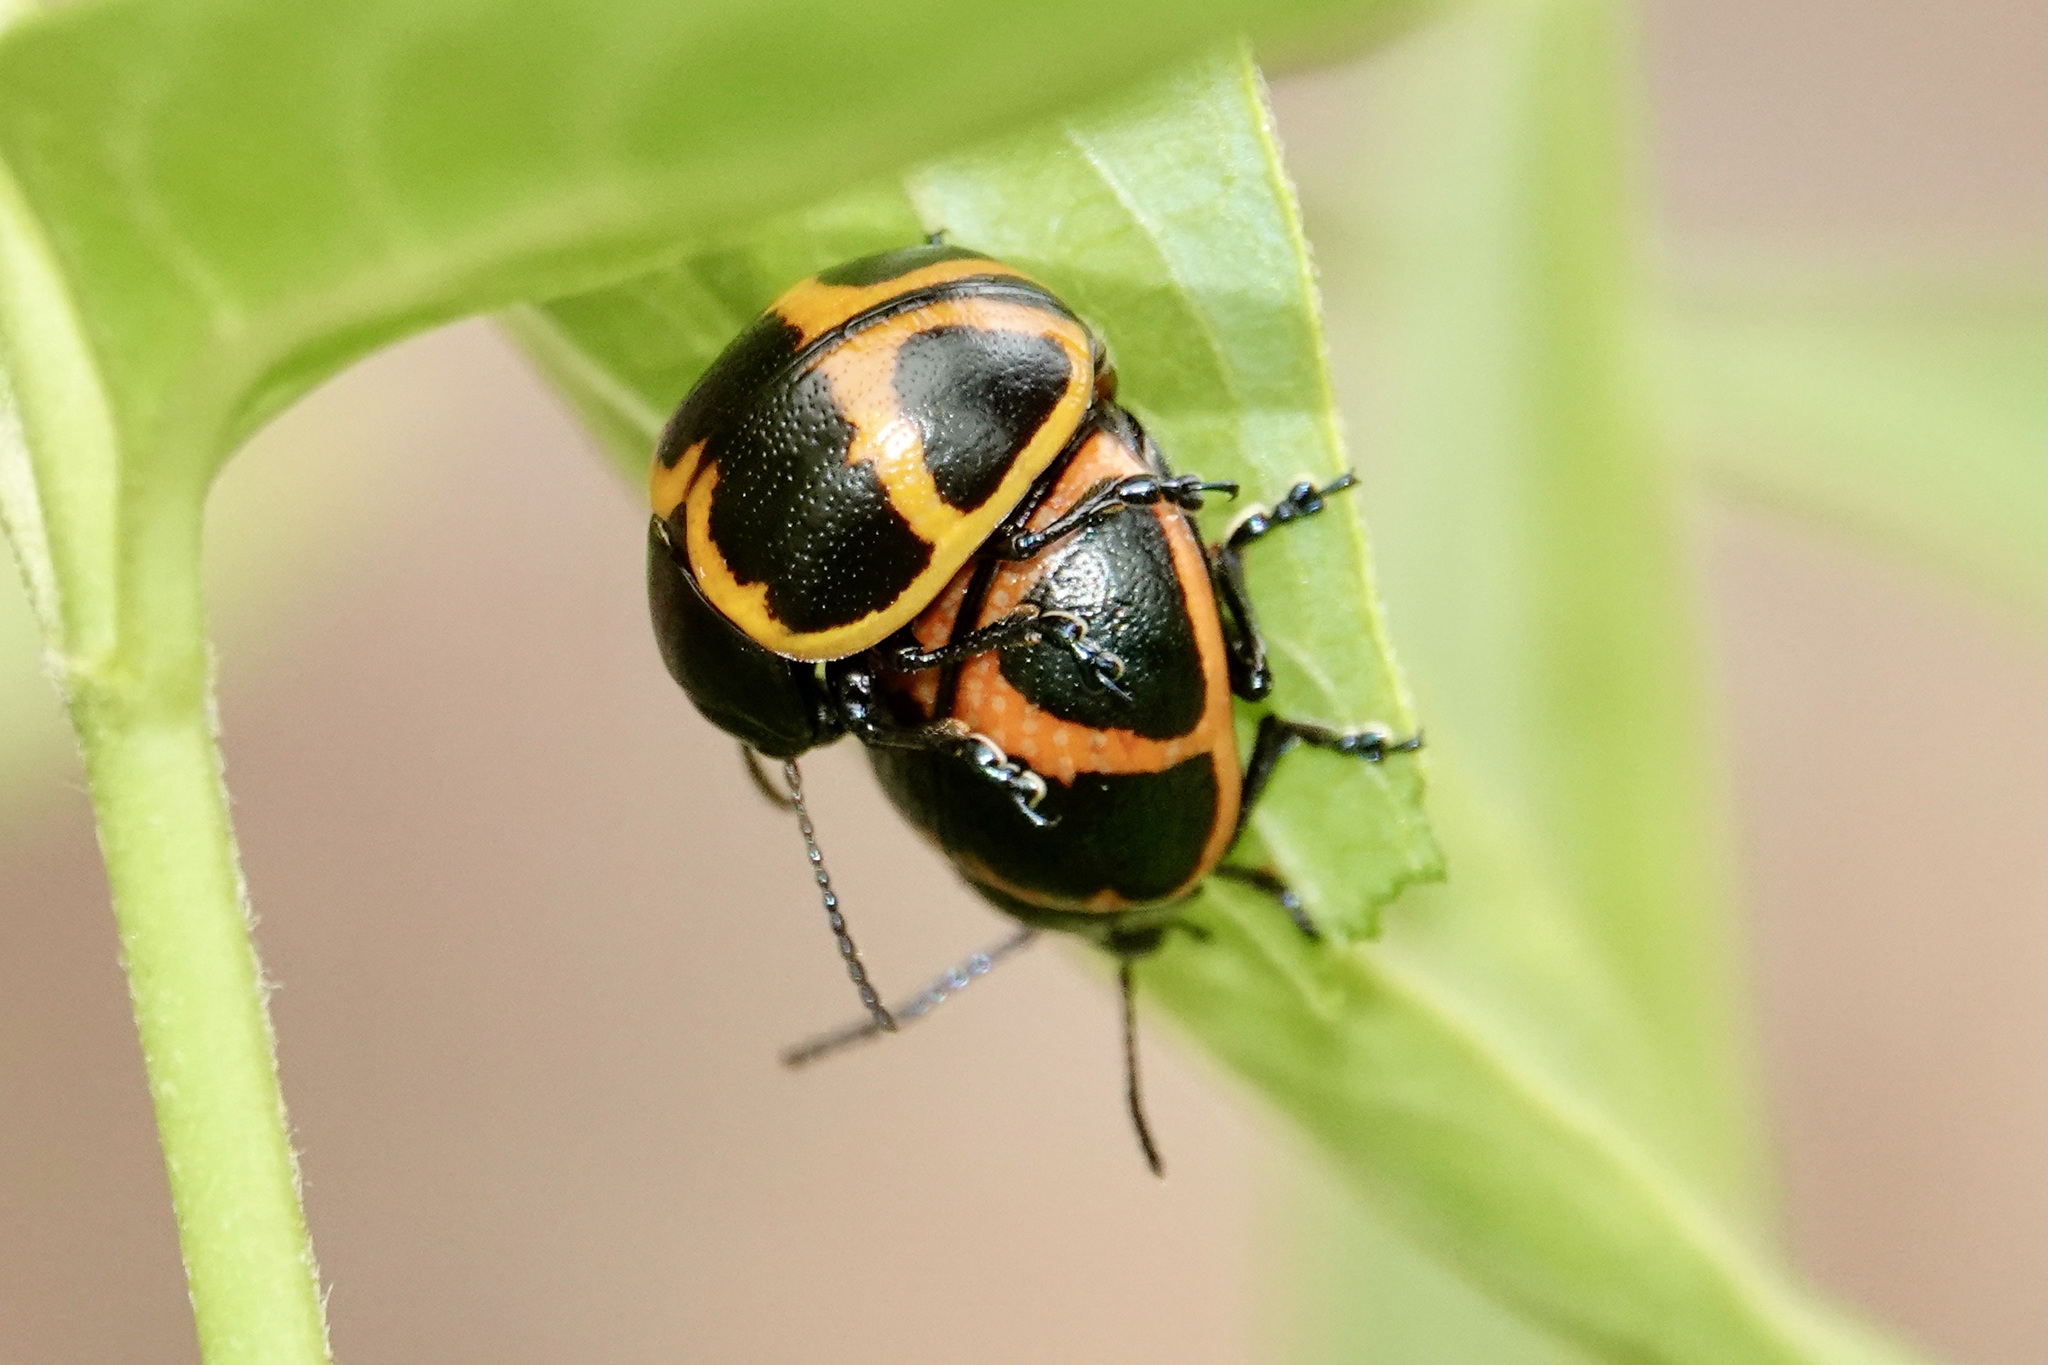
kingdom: Animalia
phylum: Arthropoda
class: Insecta
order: Coleoptera
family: Chrysomelidae
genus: Labidomera
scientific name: Labidomera clivicollis
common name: Swamp milkweed leaf beetle
